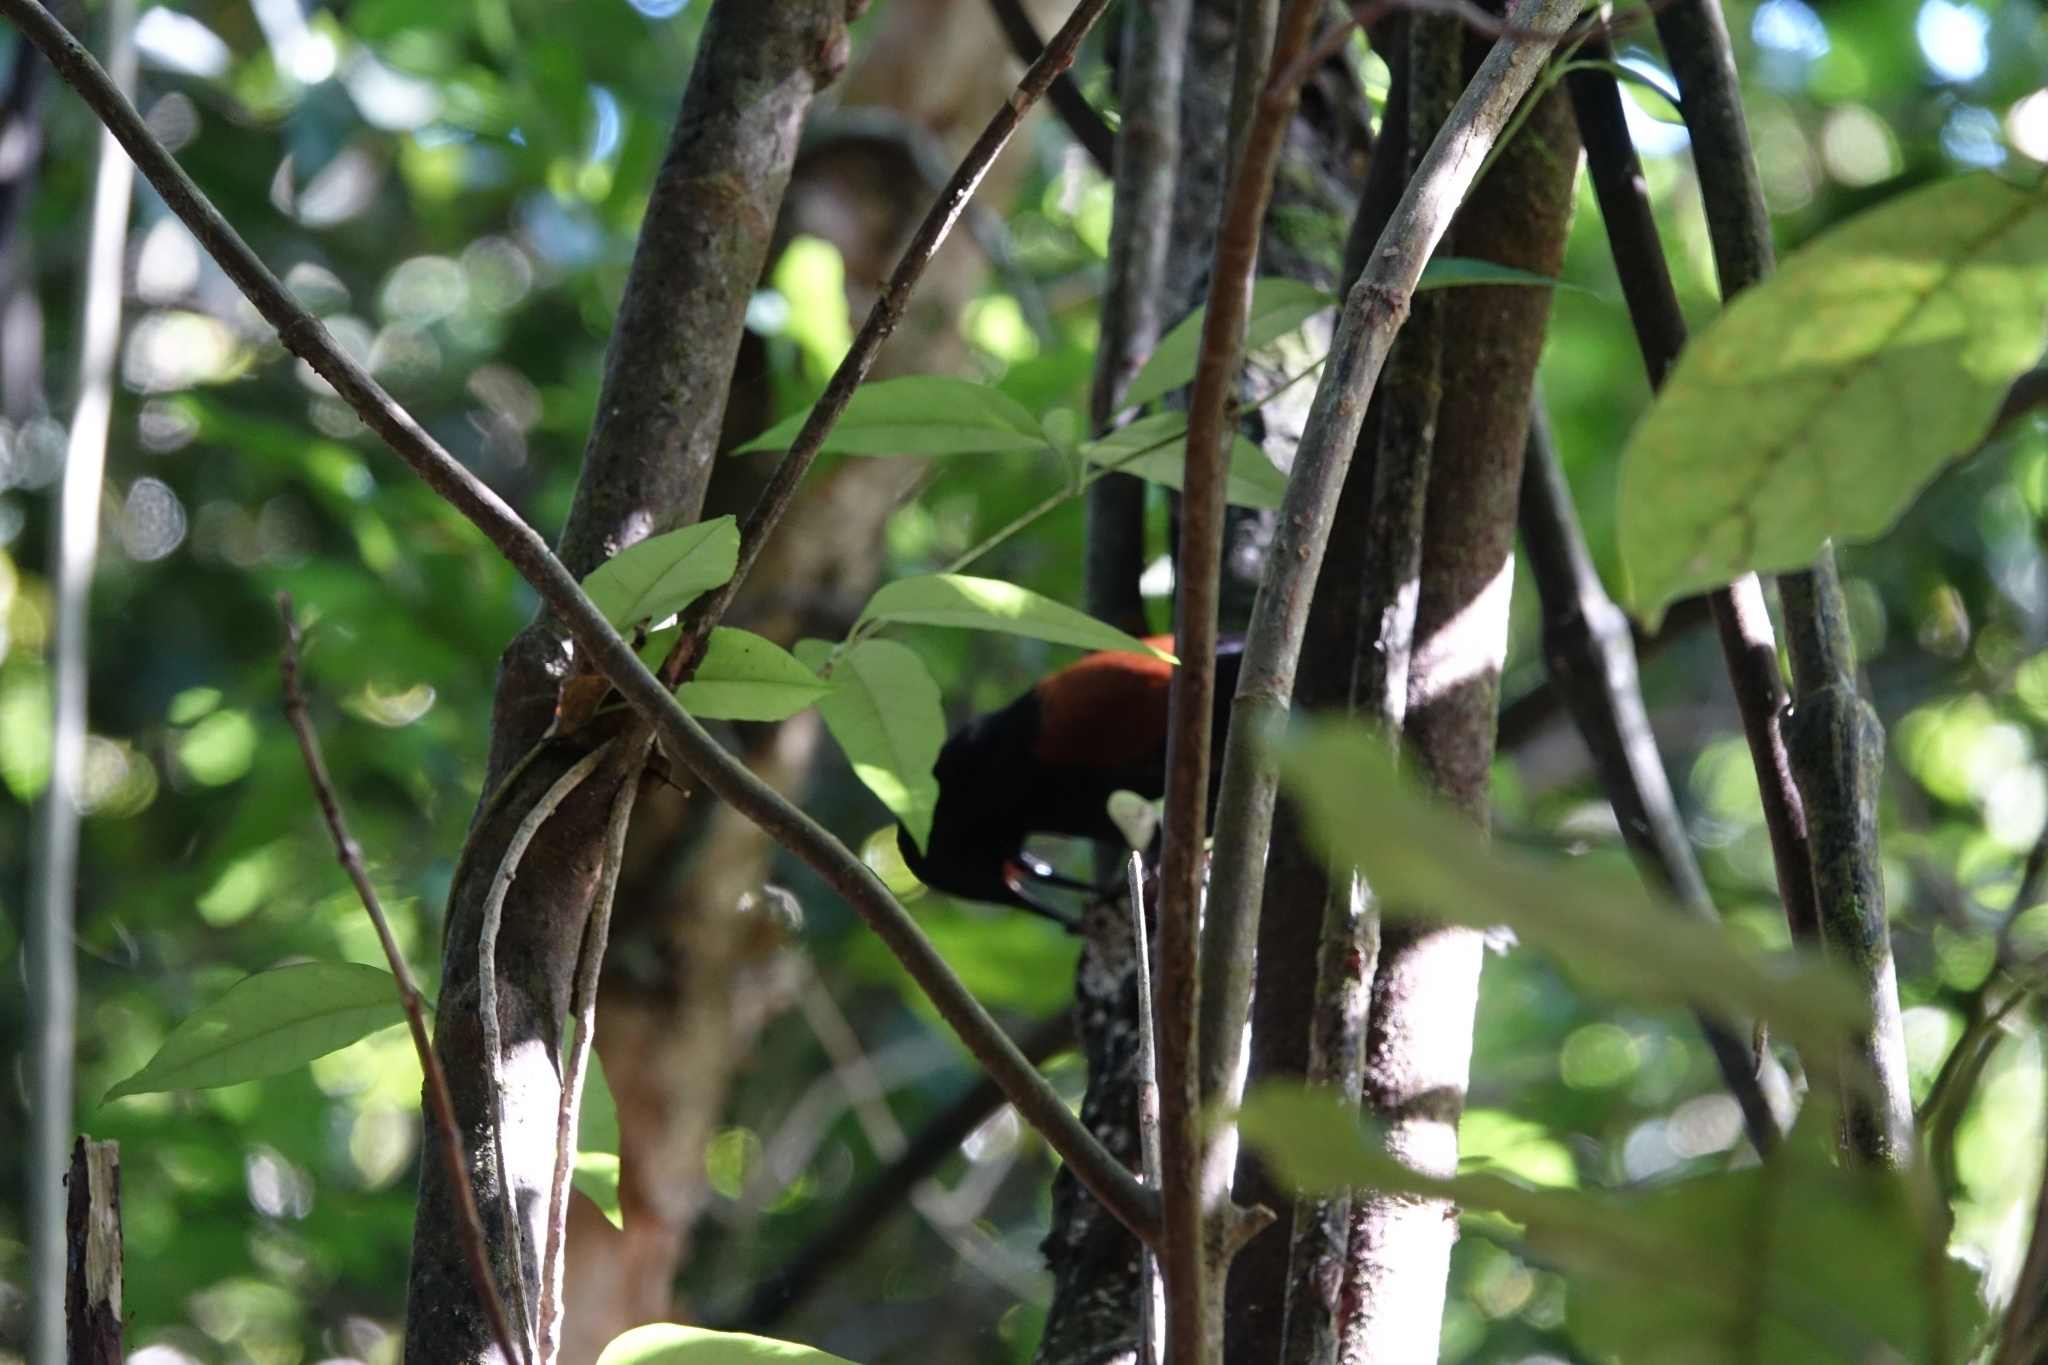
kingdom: Animalia
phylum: Chordata
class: Aves
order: Passeriformes
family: Callaeatidae
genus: Philesturnus
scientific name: Philesturnus carunculatus
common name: South island saddleback
